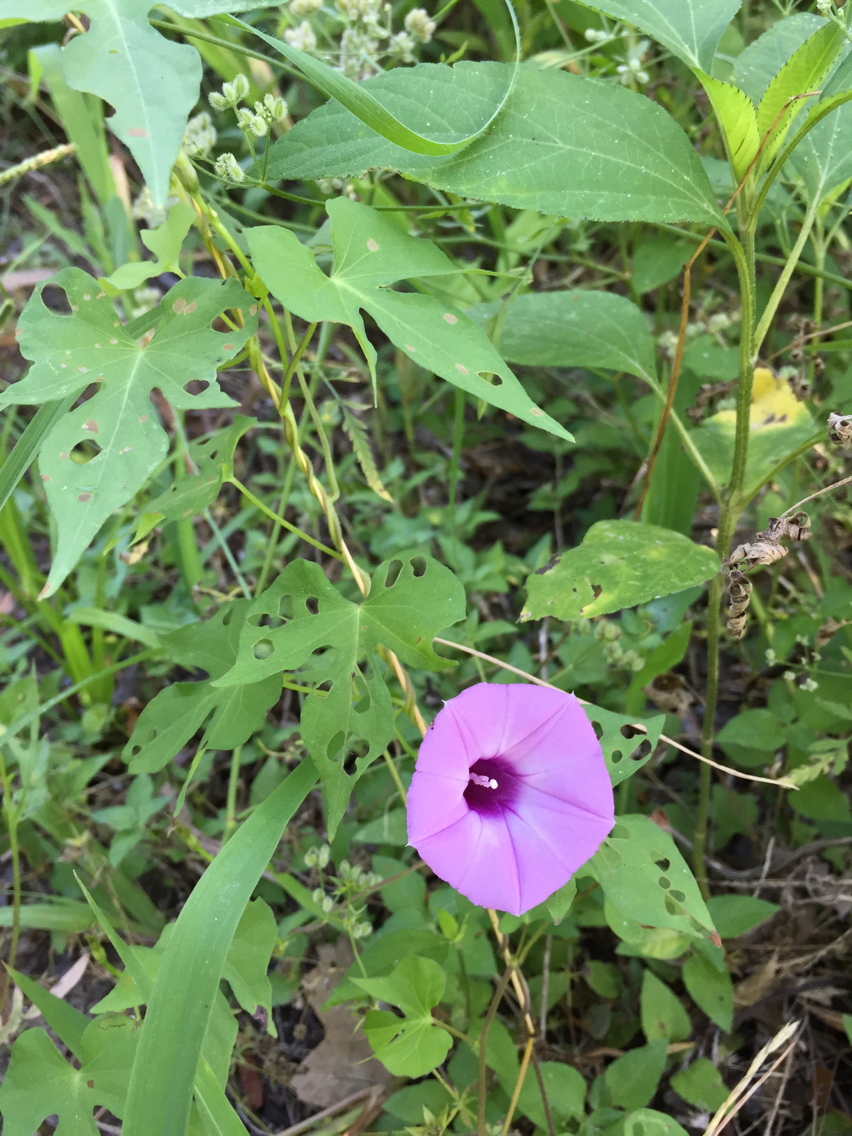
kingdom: Plantae
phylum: Tracheophyta
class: Magnoliopsida
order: Solanales
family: Convolvulaceae
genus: Ipomoea
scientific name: Ipomoea cordatotriloba
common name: Cotton morning glory
